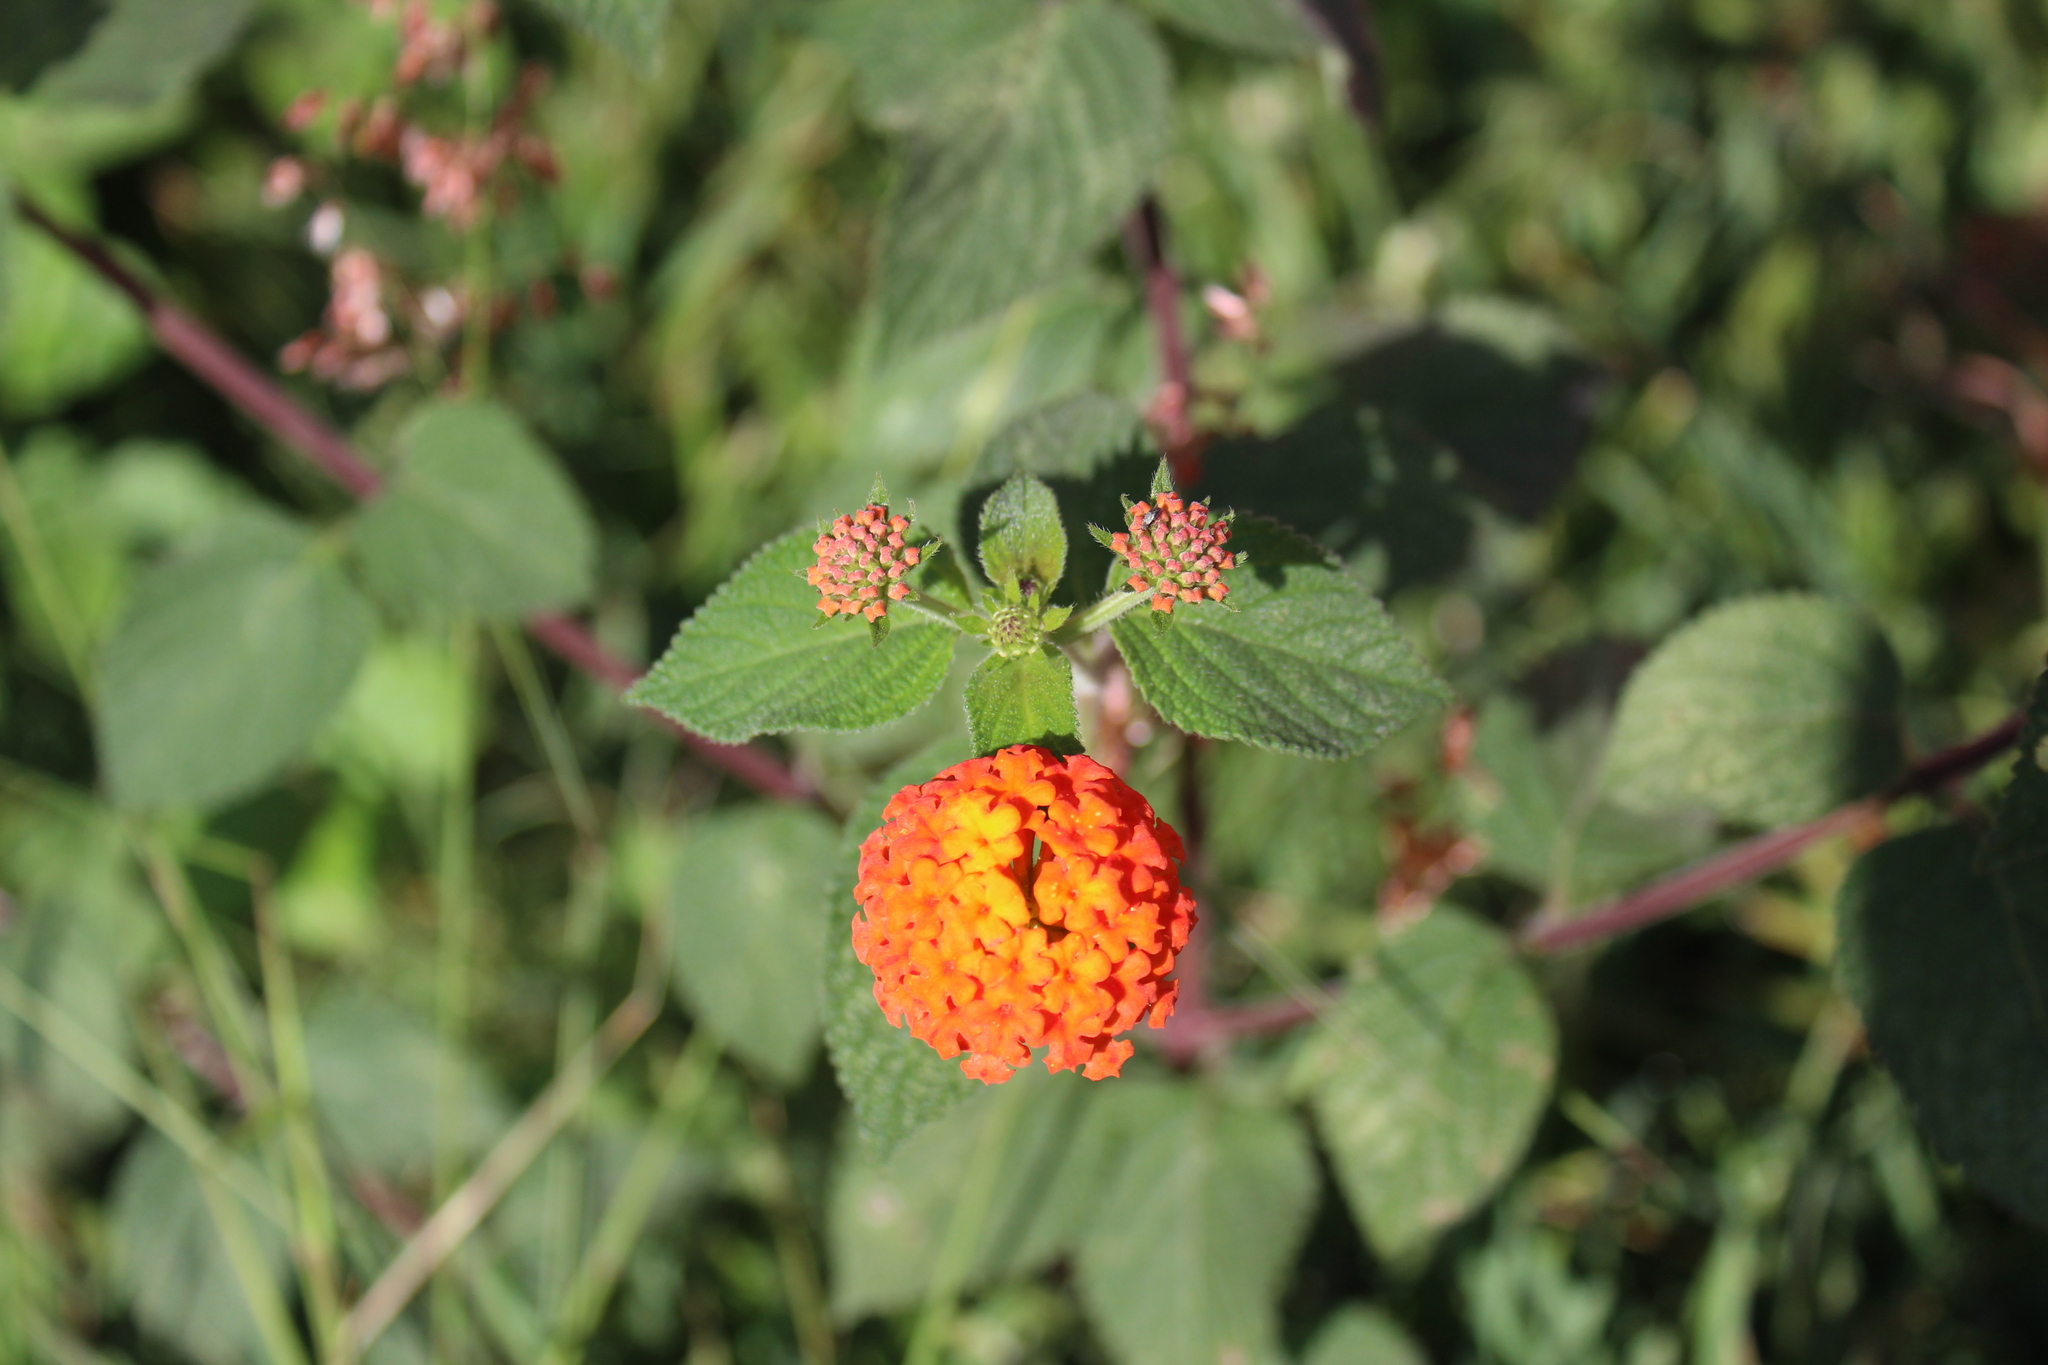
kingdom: Plantae
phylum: Tracheophyta
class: Magnoliopsida
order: Lamiales
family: Verbenaceae
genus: Lantana
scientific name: Lantana camara
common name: Lantana
